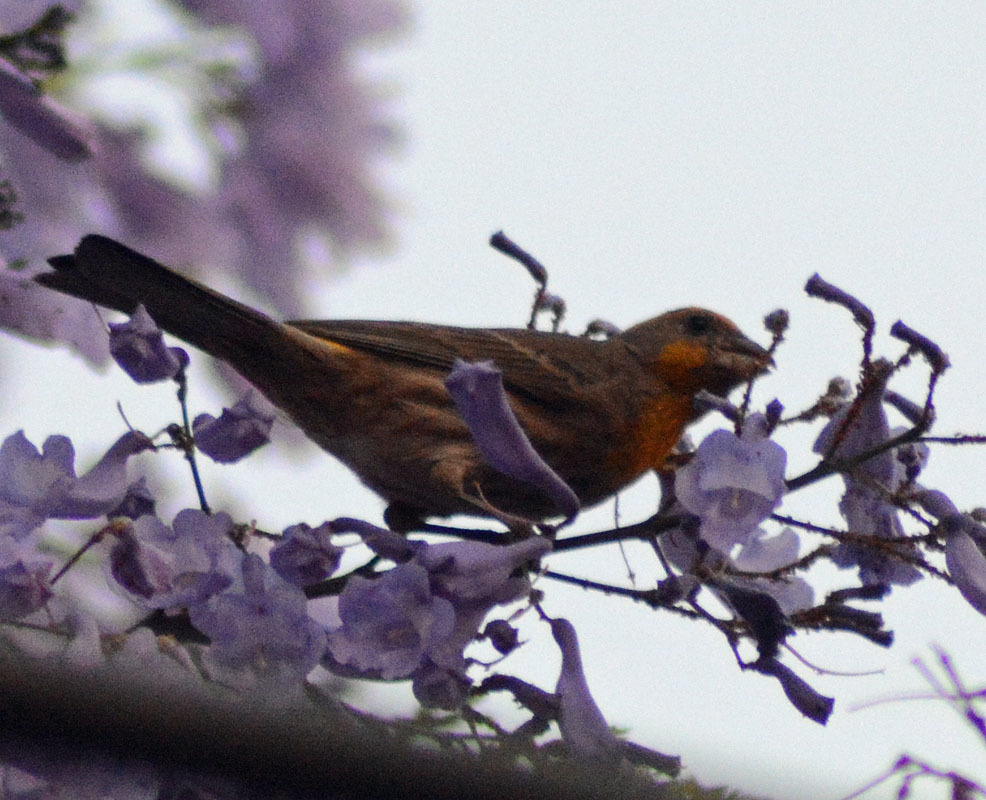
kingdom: Animalia
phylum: Chordata
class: Aves
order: Passeriformes
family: Fringillidae
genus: Haemorhous
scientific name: Haemorhous mexicanus
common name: House finch
